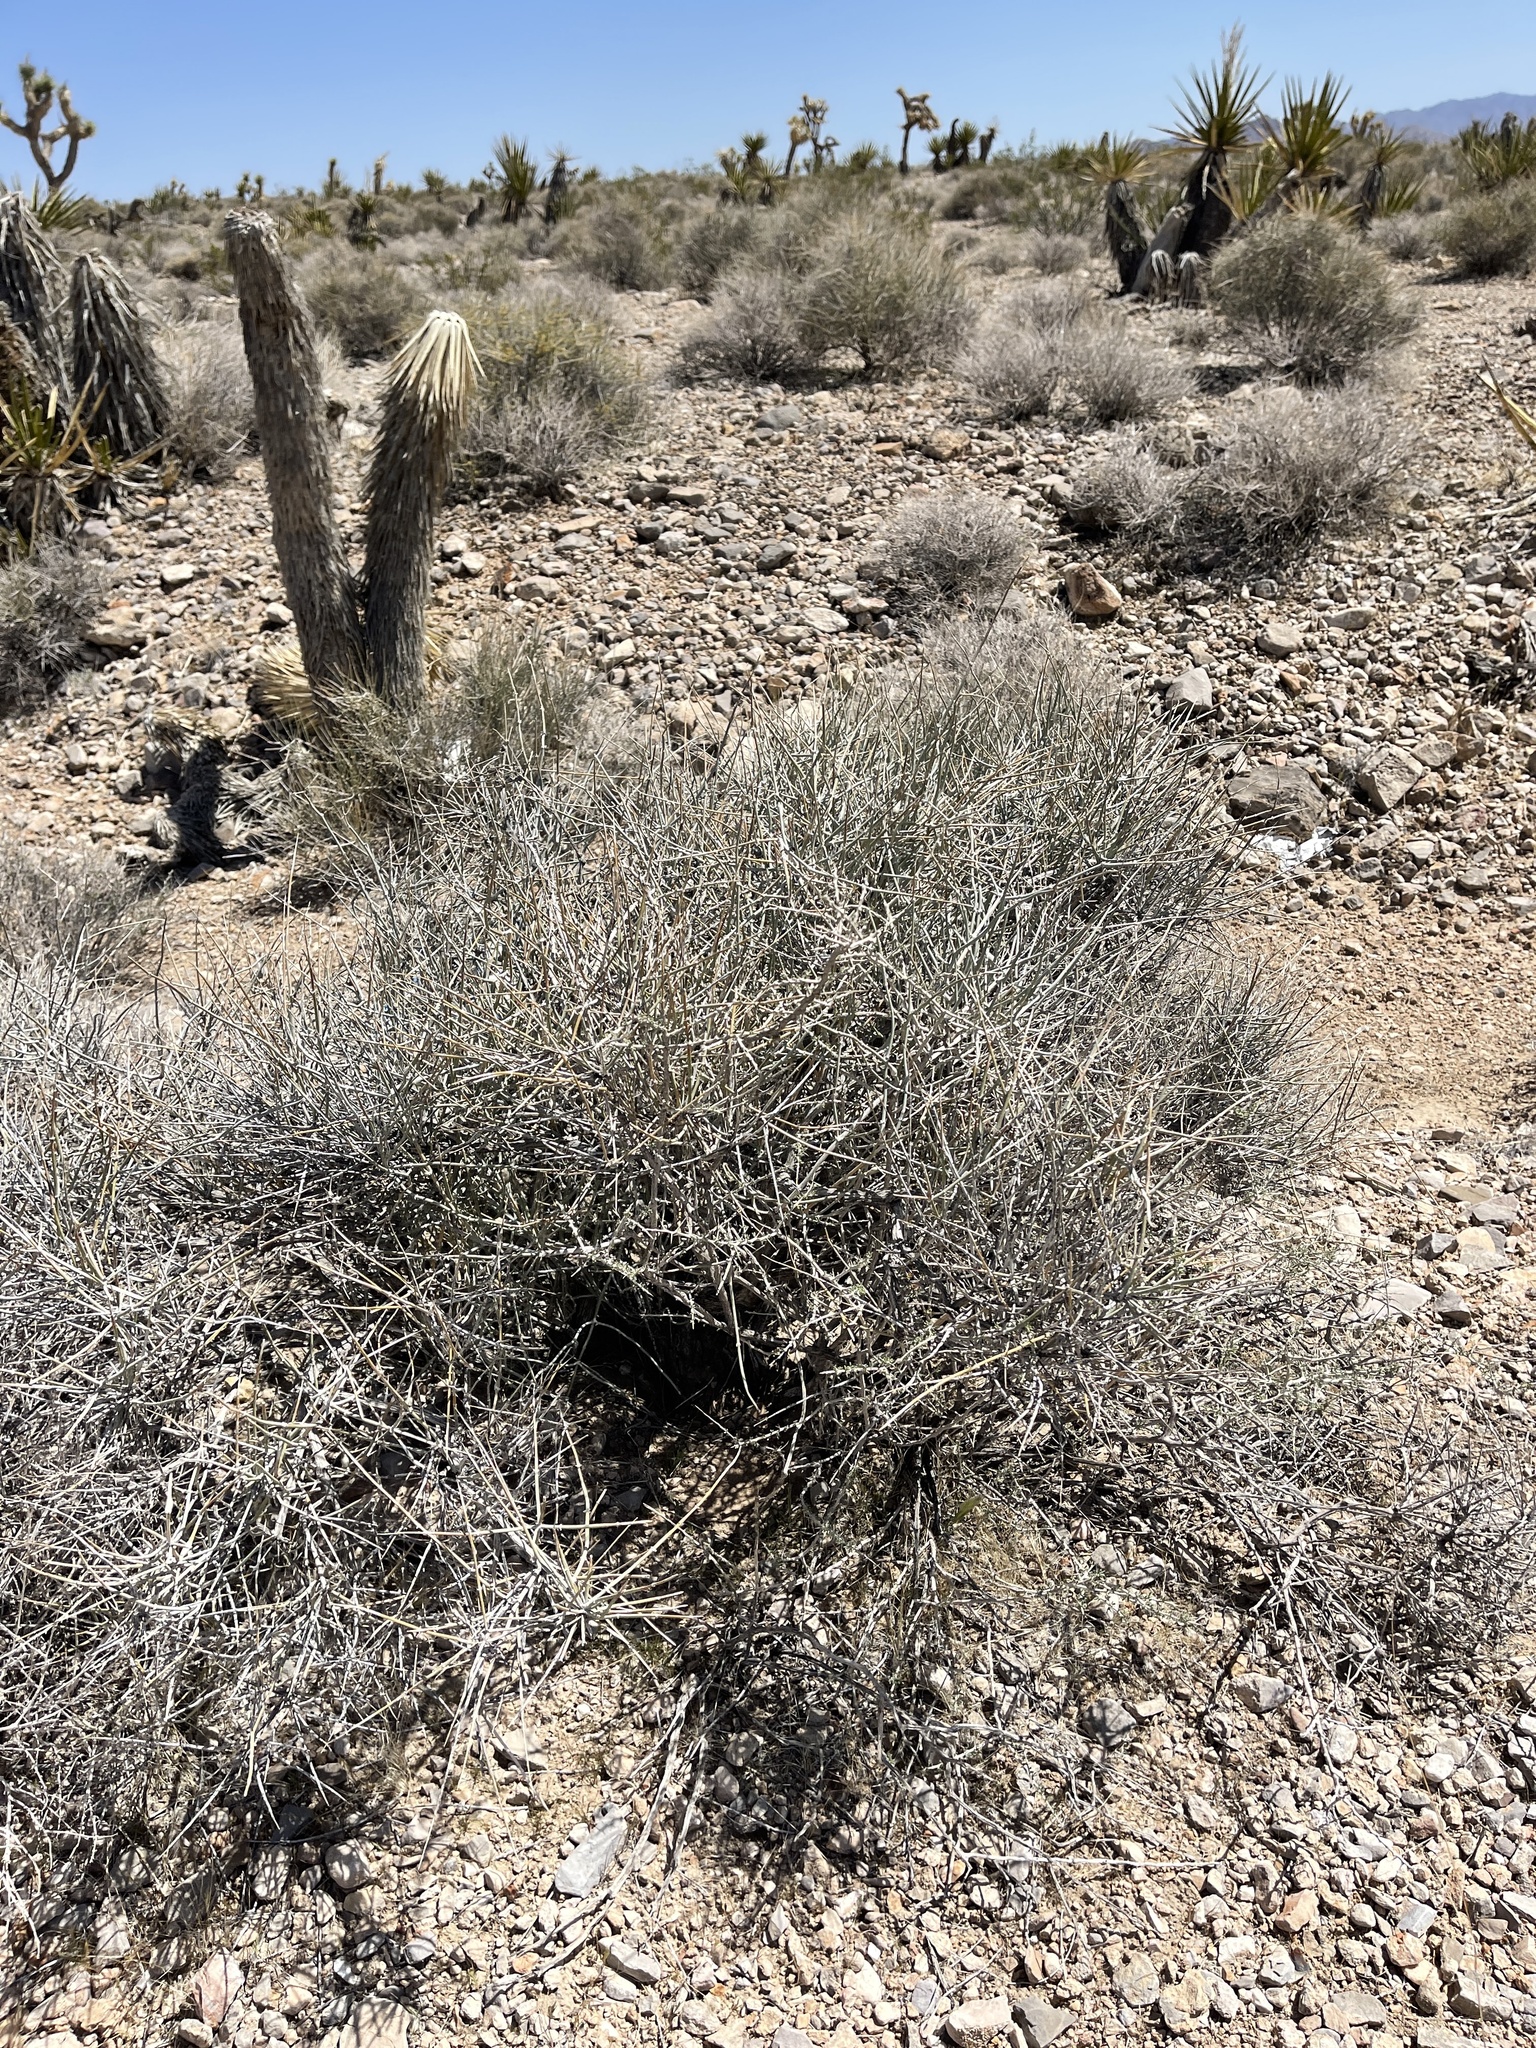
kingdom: Plantae
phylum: Tracheophyta
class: Gnetopsida
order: Ephedrales
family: Ephedraceae
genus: Ephedra
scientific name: Ephedra nevadensis
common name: Gray ephedra
